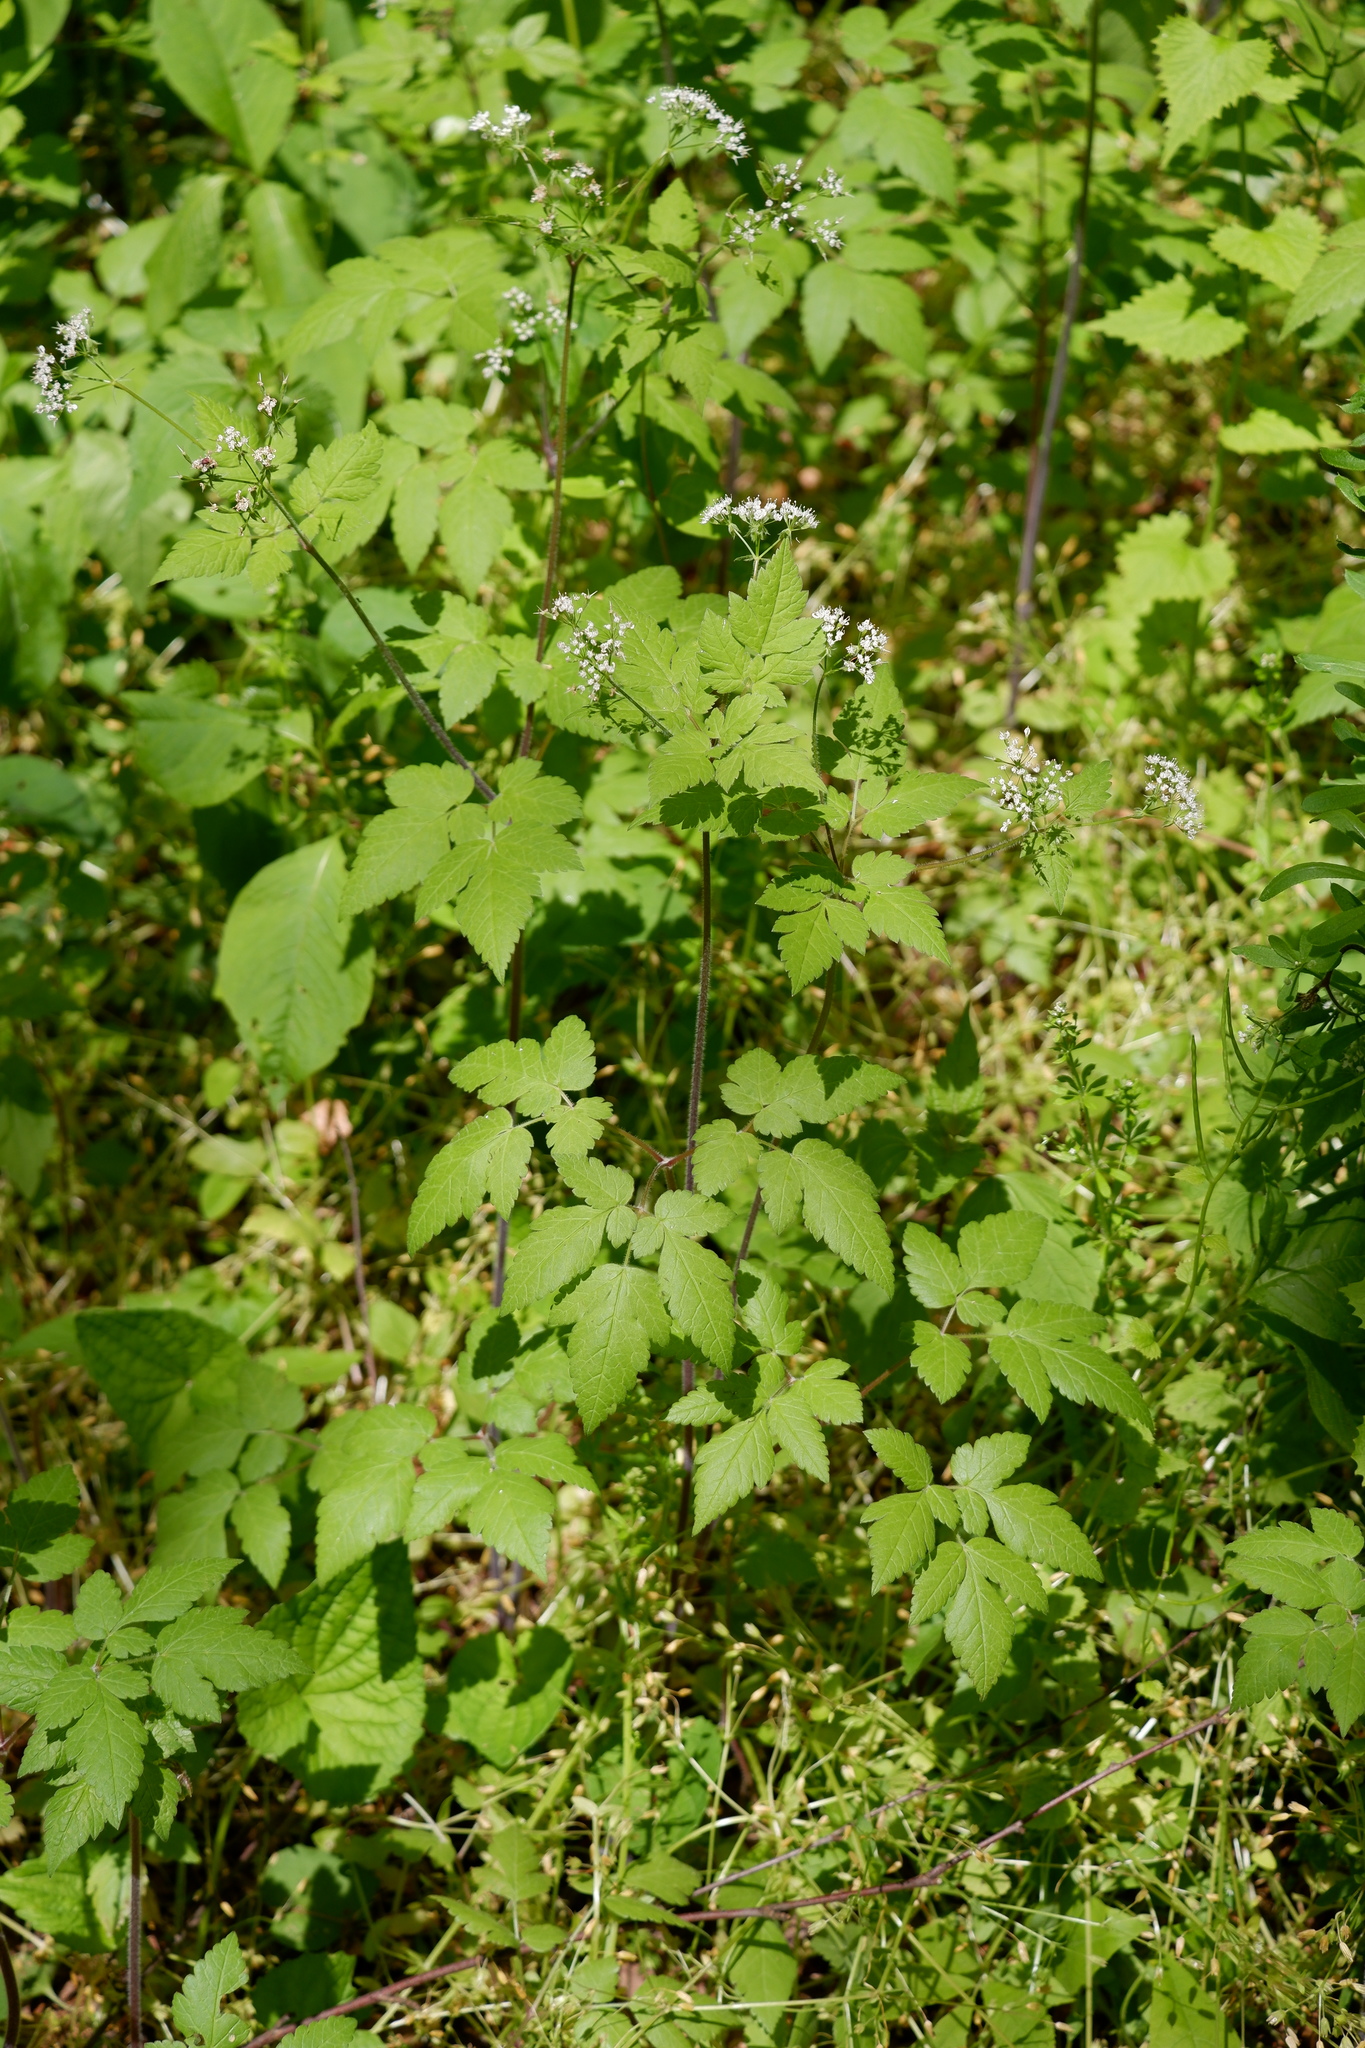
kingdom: Plantae
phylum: Tracheophyta
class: Magnoliopsida
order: Apiales
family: Apiaceae
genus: Osmorhiza
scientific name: Osmorhiza longistylis
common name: Smooth sweet cicely
